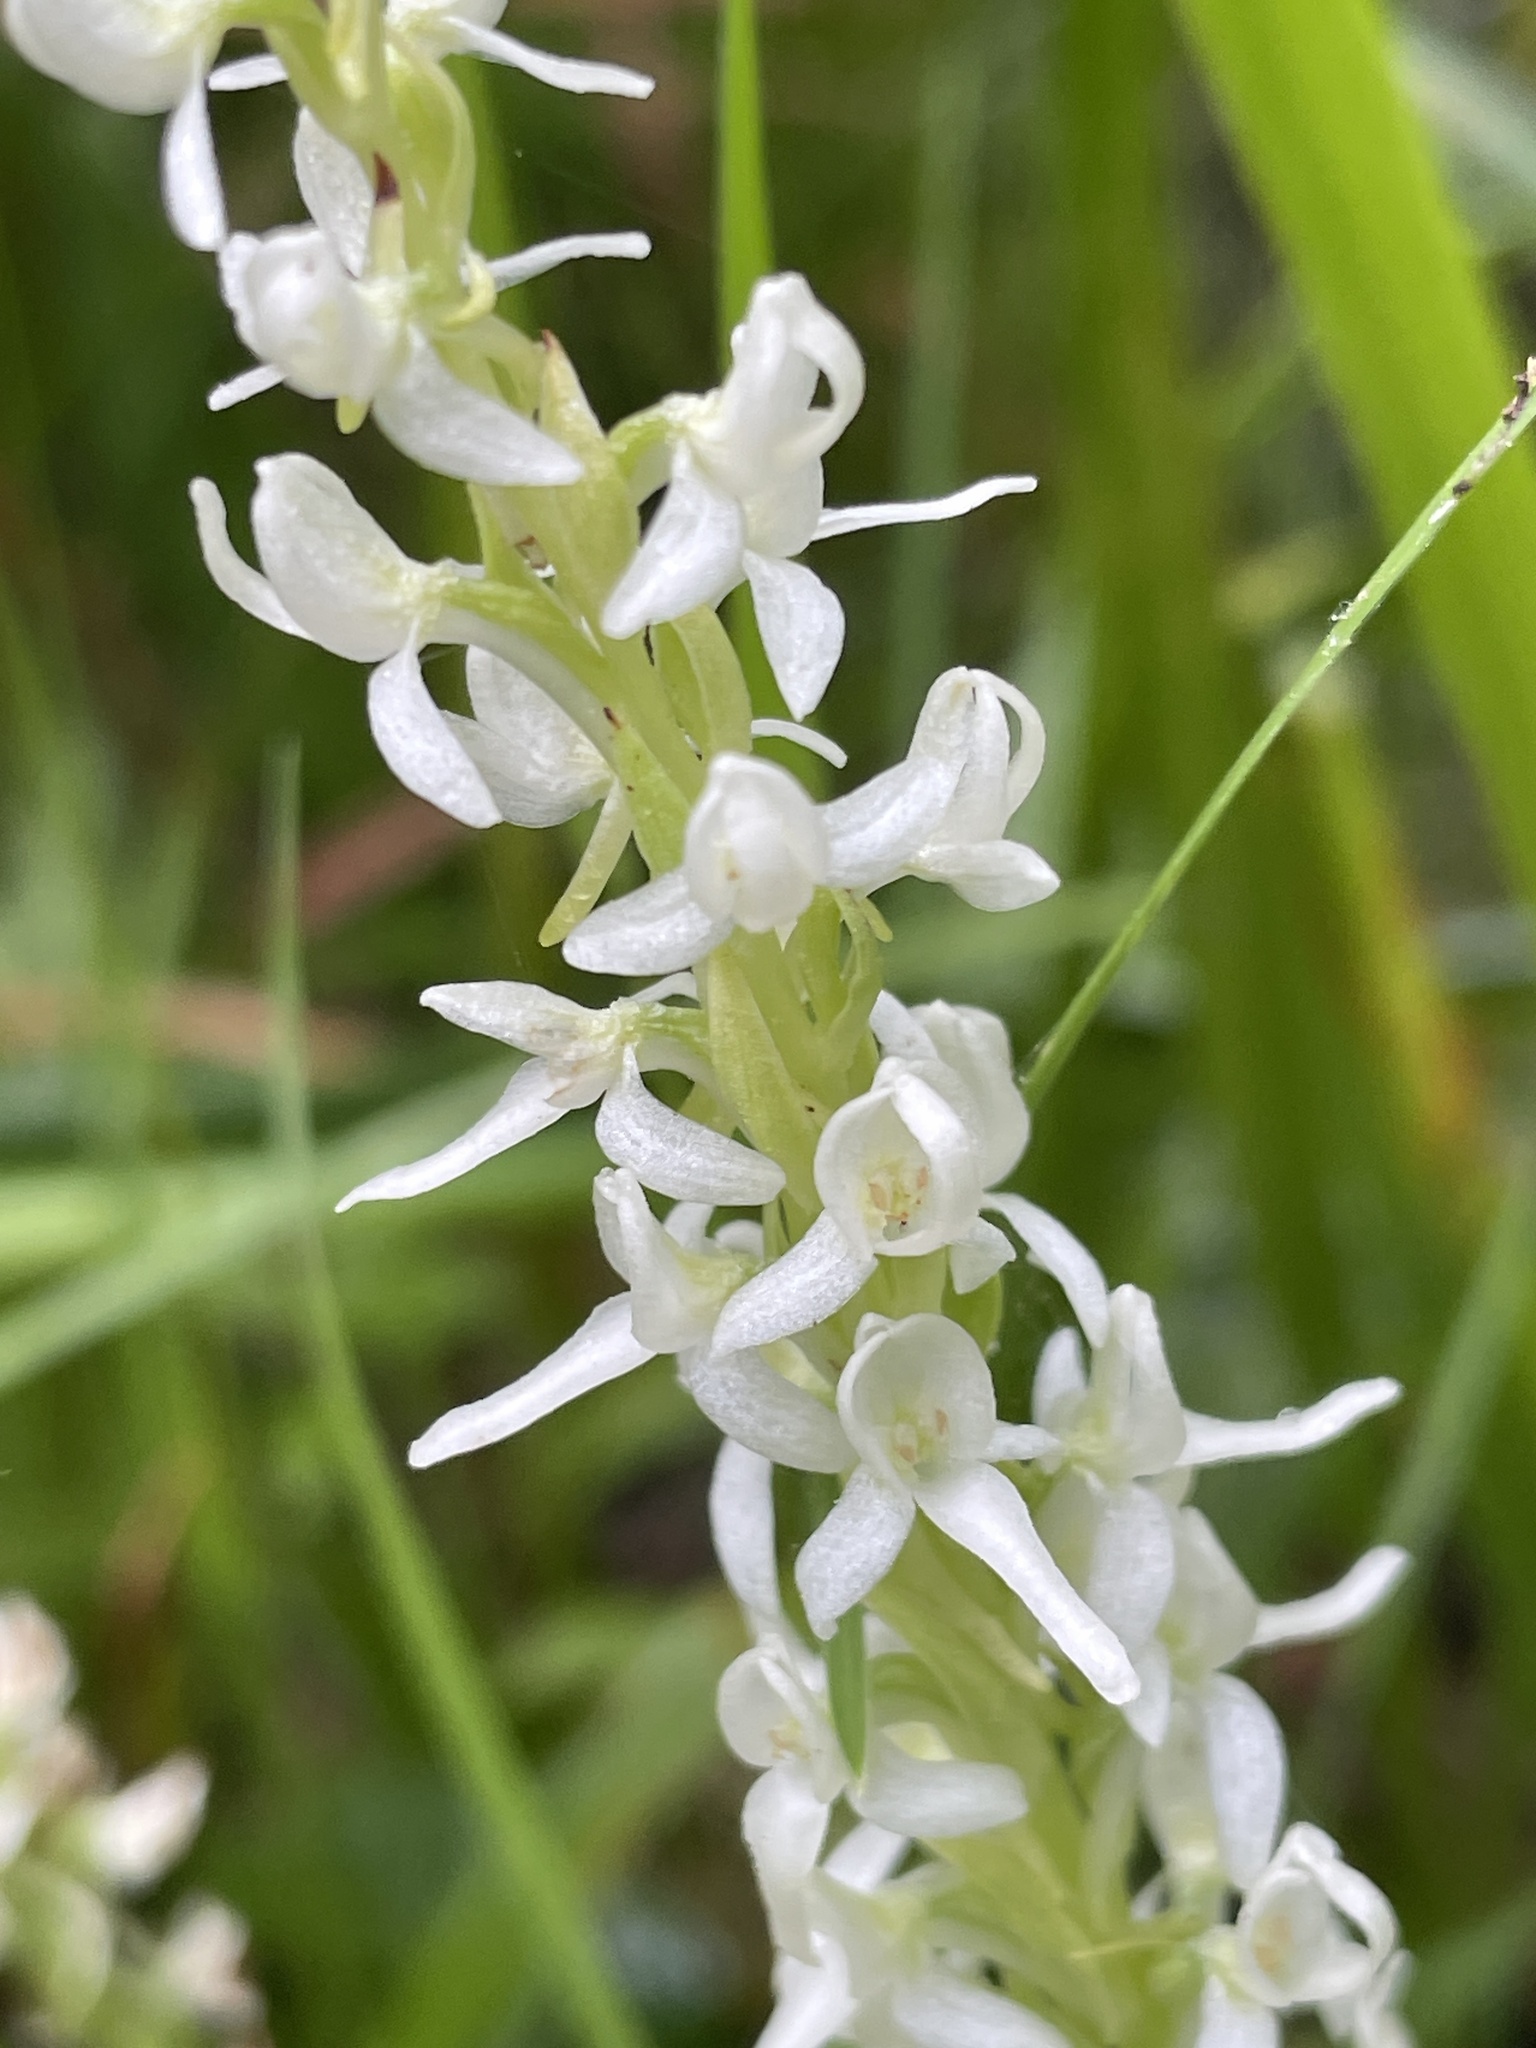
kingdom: Plantae
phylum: Tracheophyta
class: Liliopsida
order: Asparagales
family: Orchidaceae
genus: Platanthera
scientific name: Platanthera dilatata
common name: Bog candles
